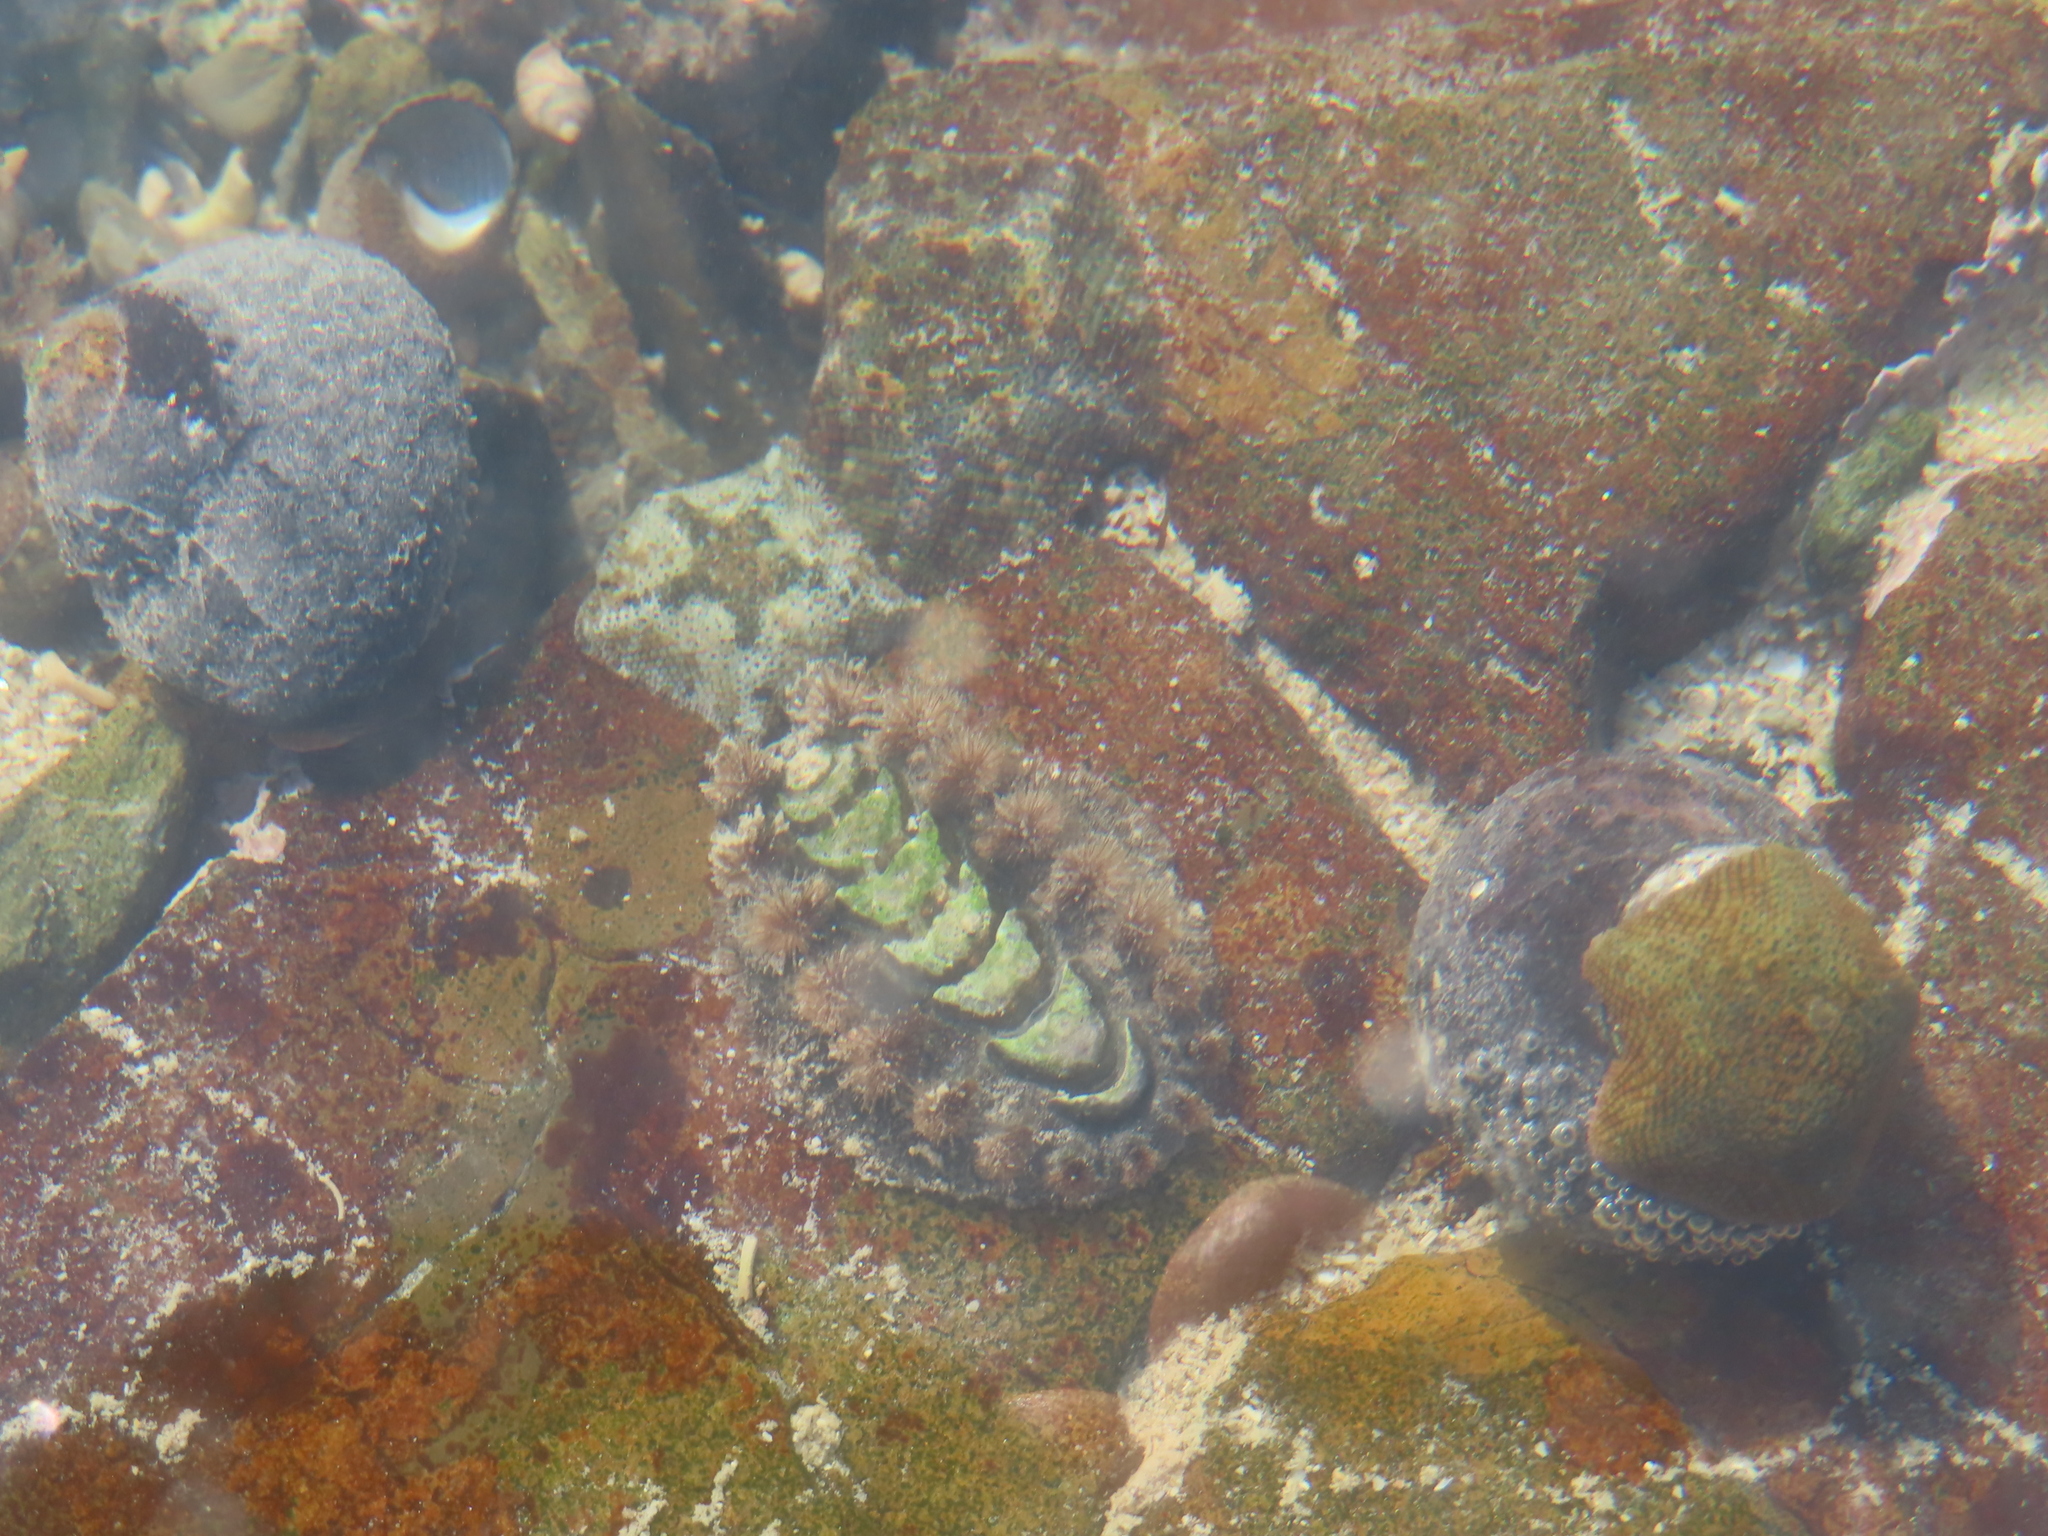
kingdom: Animalia
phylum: Mollusca
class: Polyplacophora
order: Chitonida
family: Acanthochitonidae
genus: Acanthochitona
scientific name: Acanthochitona garnoti
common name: Spiny chiton
